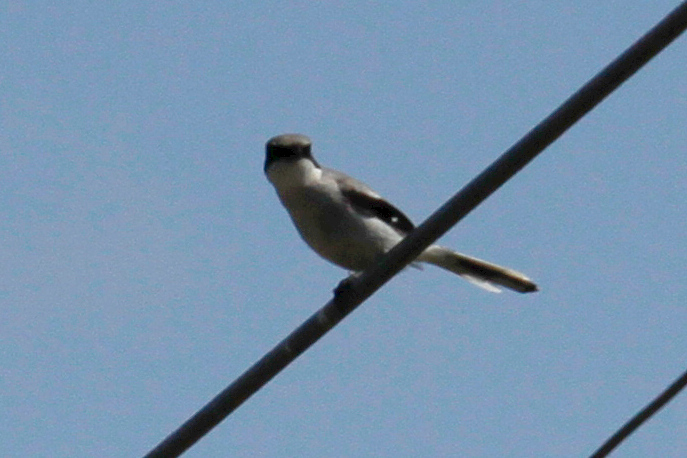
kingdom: Animalia
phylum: Chordata
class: Aves
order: Passeriformes
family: Laniidae
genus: Lanius
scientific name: Lanius ludovicianus
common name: Loggerhead shrike
